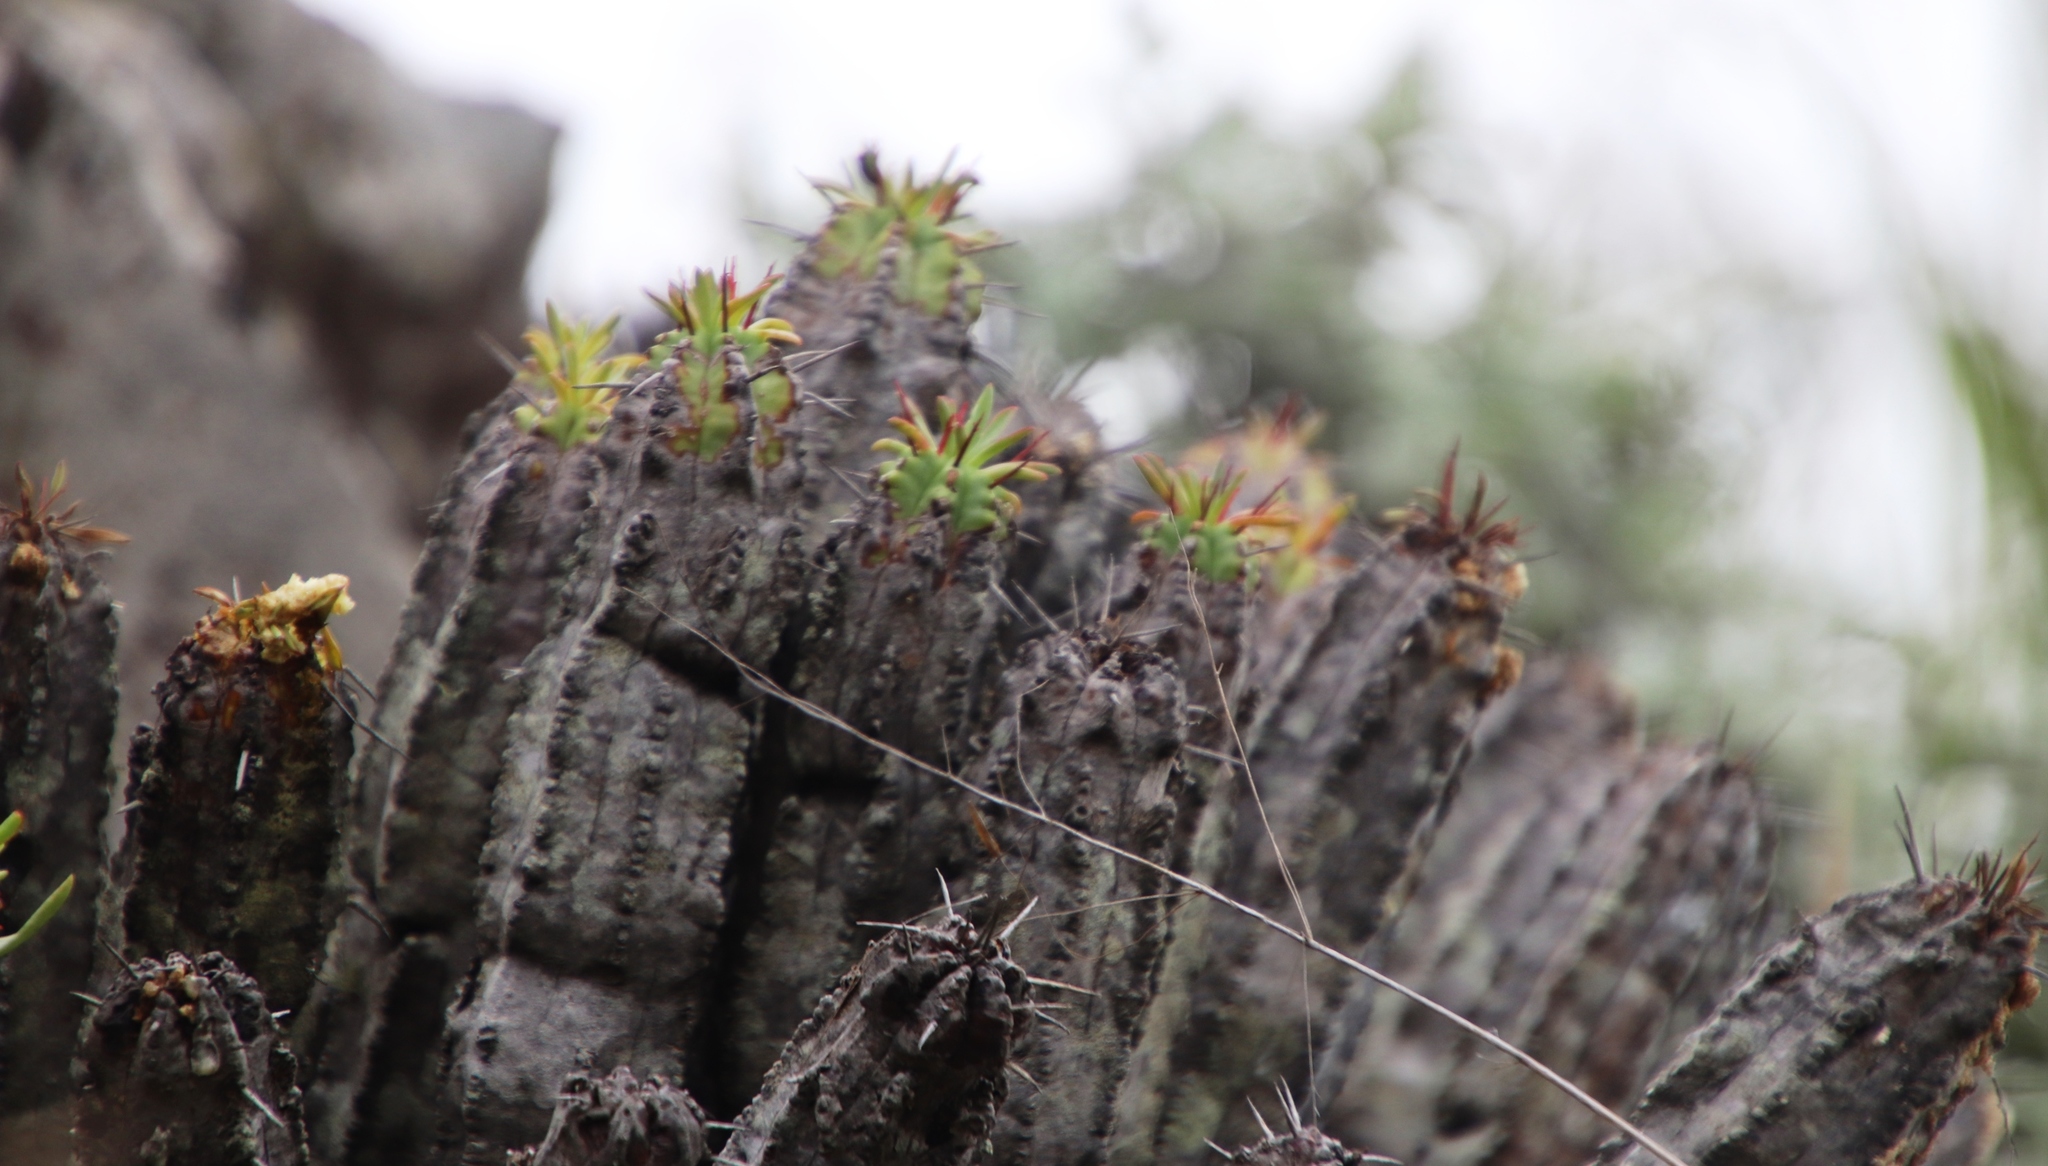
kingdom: Plantae
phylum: Tracheophyta
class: Magnoliopsida
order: Malpighiales
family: Euphorbiaceae
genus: Euphorbia
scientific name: Euphorbia pulvinata
